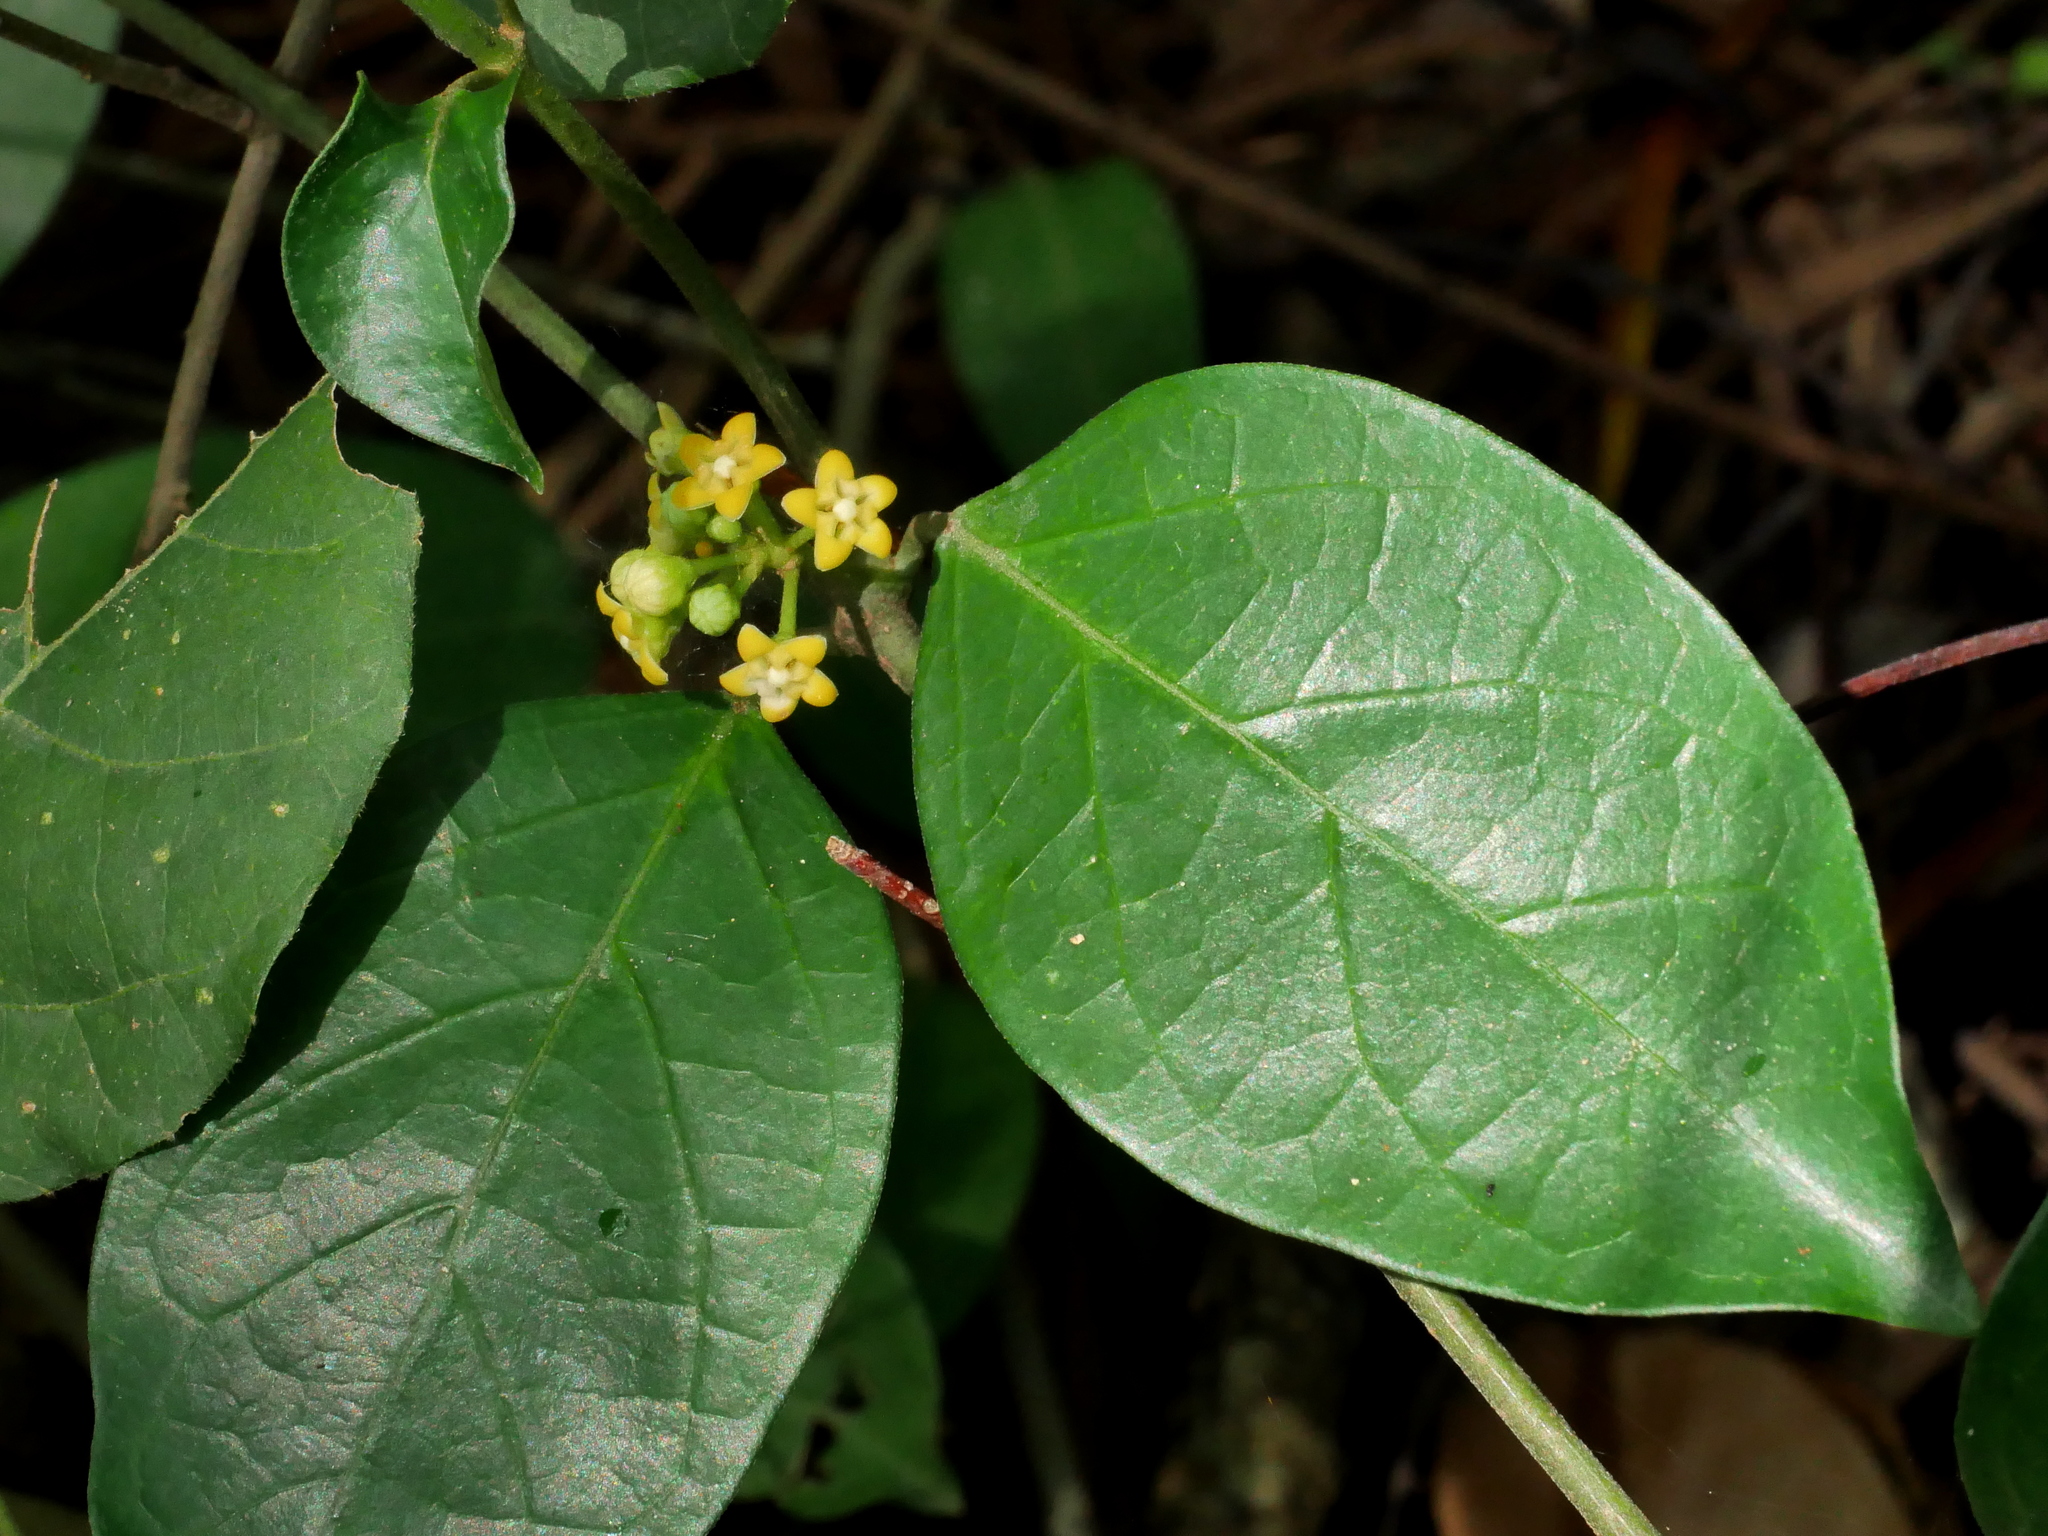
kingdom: Plantae
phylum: Tracheophyta
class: Magnoliopsida
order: Gentianales
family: Apocynaceae
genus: Gymnema
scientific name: Gymnema sylvestre
